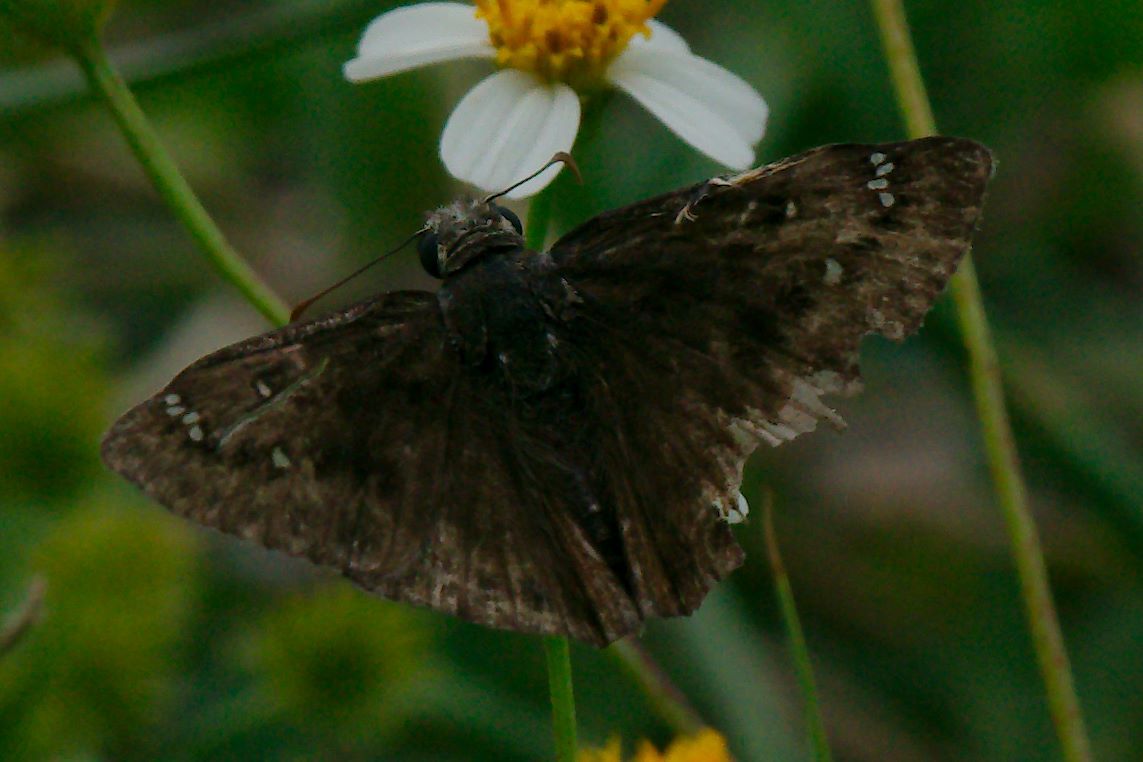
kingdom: Animalia
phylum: Arthropoda
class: Insecta
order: Lepidoptera
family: Hesperiidae
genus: Erynnis
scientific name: Erynnis horatius
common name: Horace's duskywing
